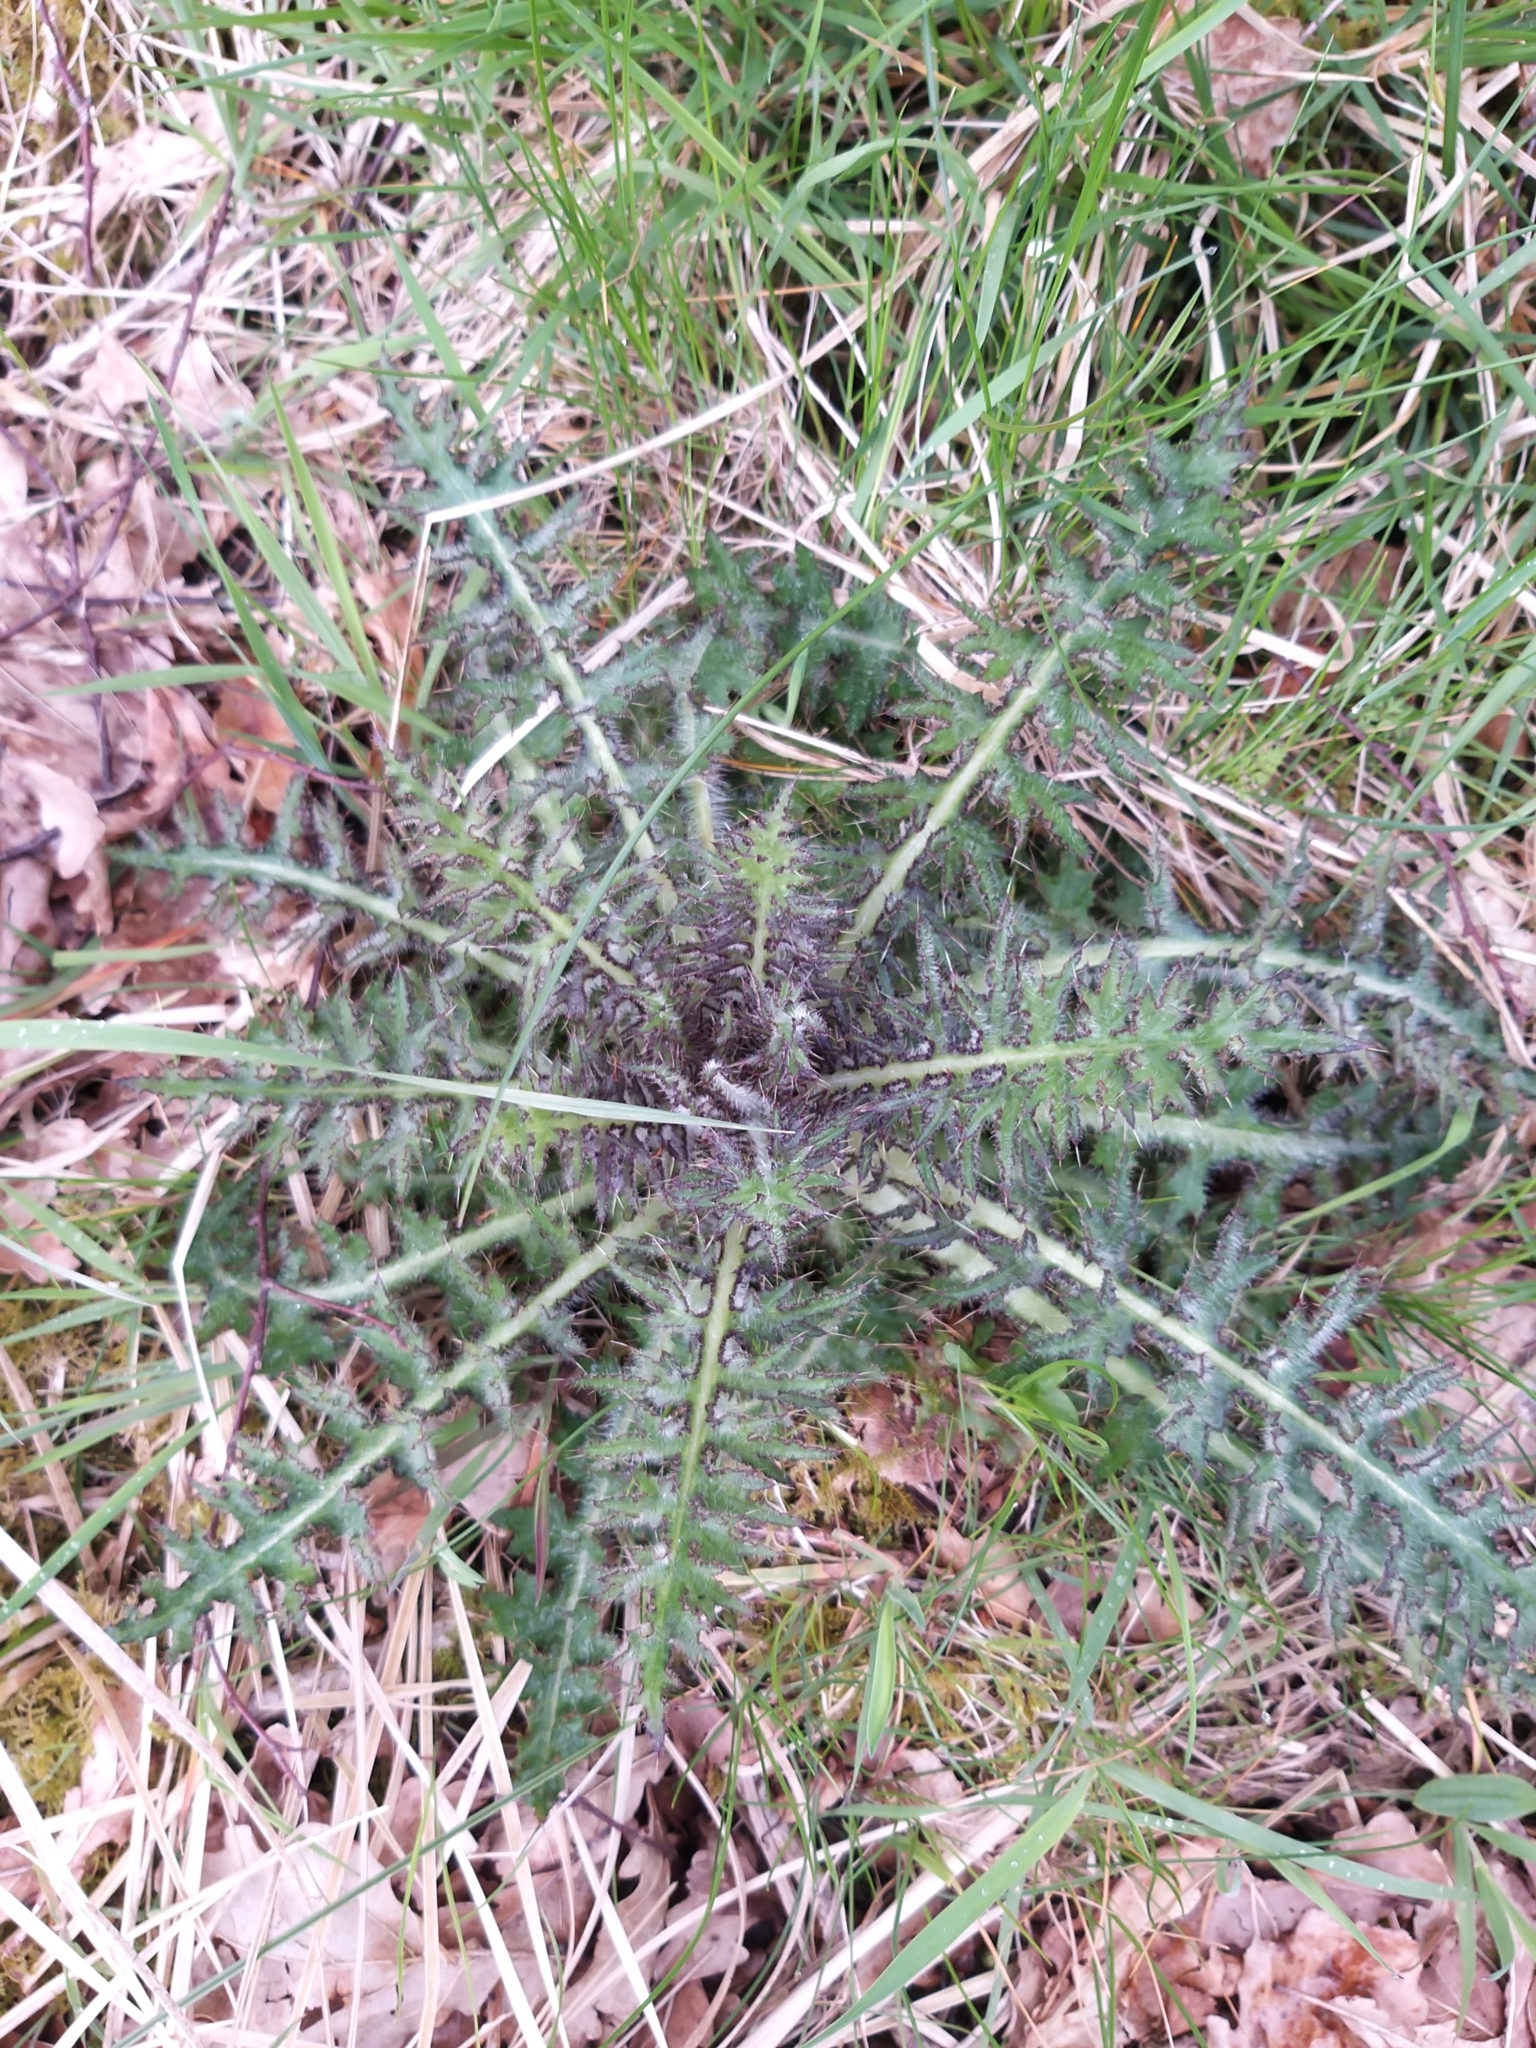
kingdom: Plantae
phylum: Tracheophyta
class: Magnoliopsida
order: Asterales
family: Asteraceae
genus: Cirsium
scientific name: Cirsium palustre
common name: Marsh thistle
